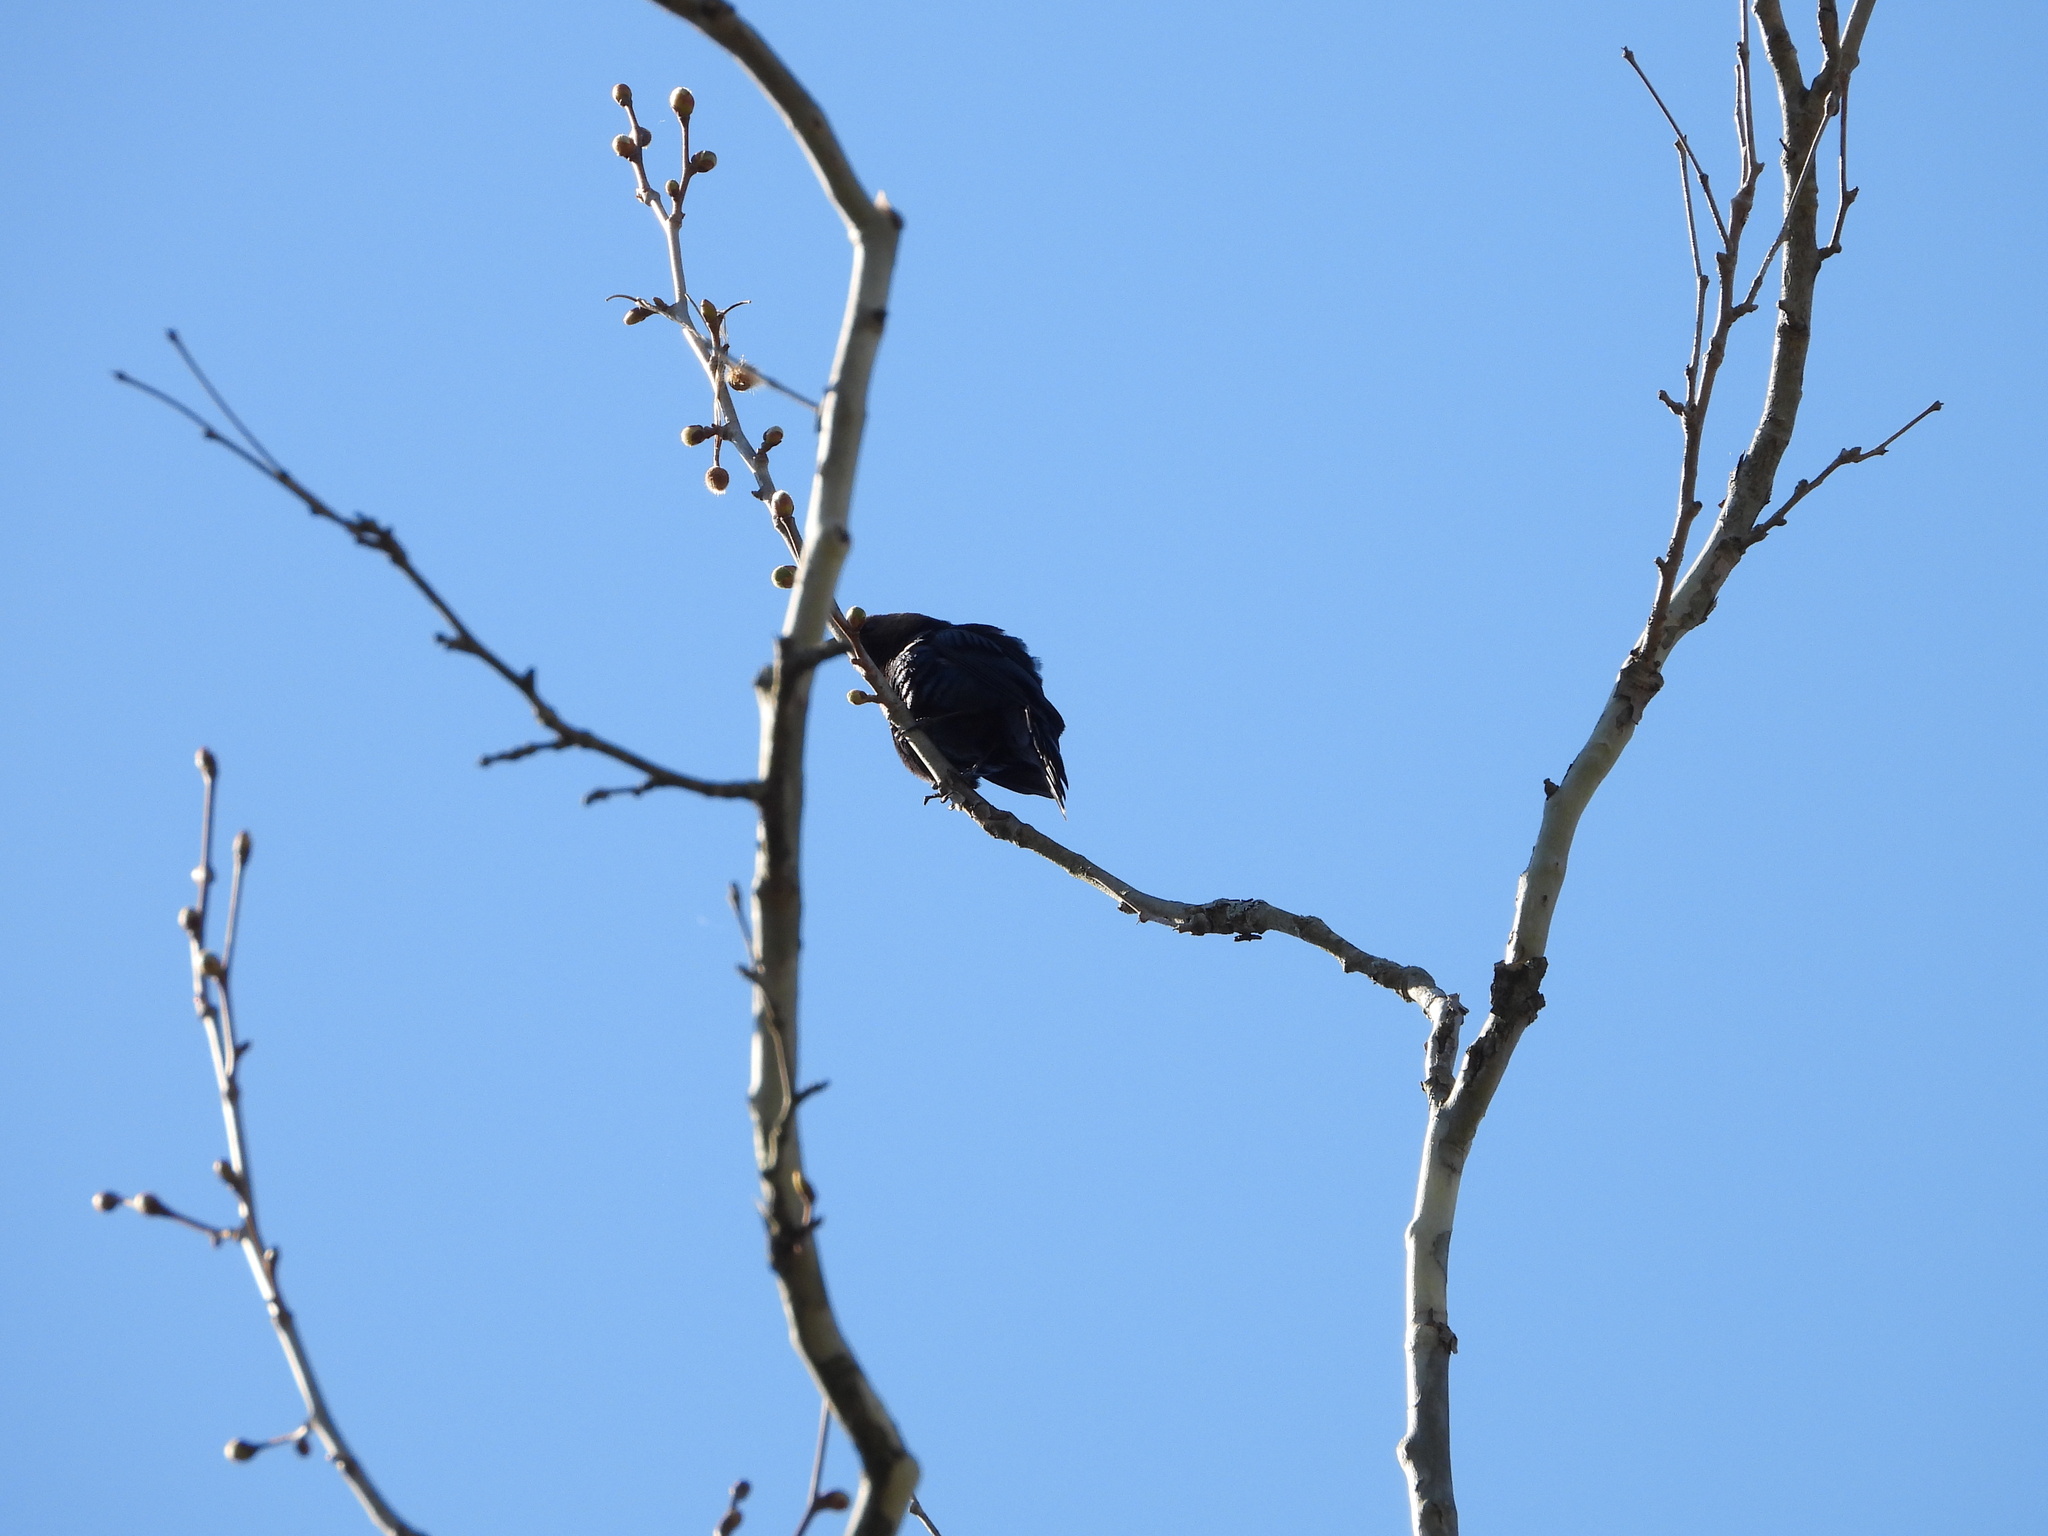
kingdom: Animalia
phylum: Chordata
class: Aves
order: Passeriformes
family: Icteridae
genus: Molothrus
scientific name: Molothrus ater
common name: Brown-headed cowbird
